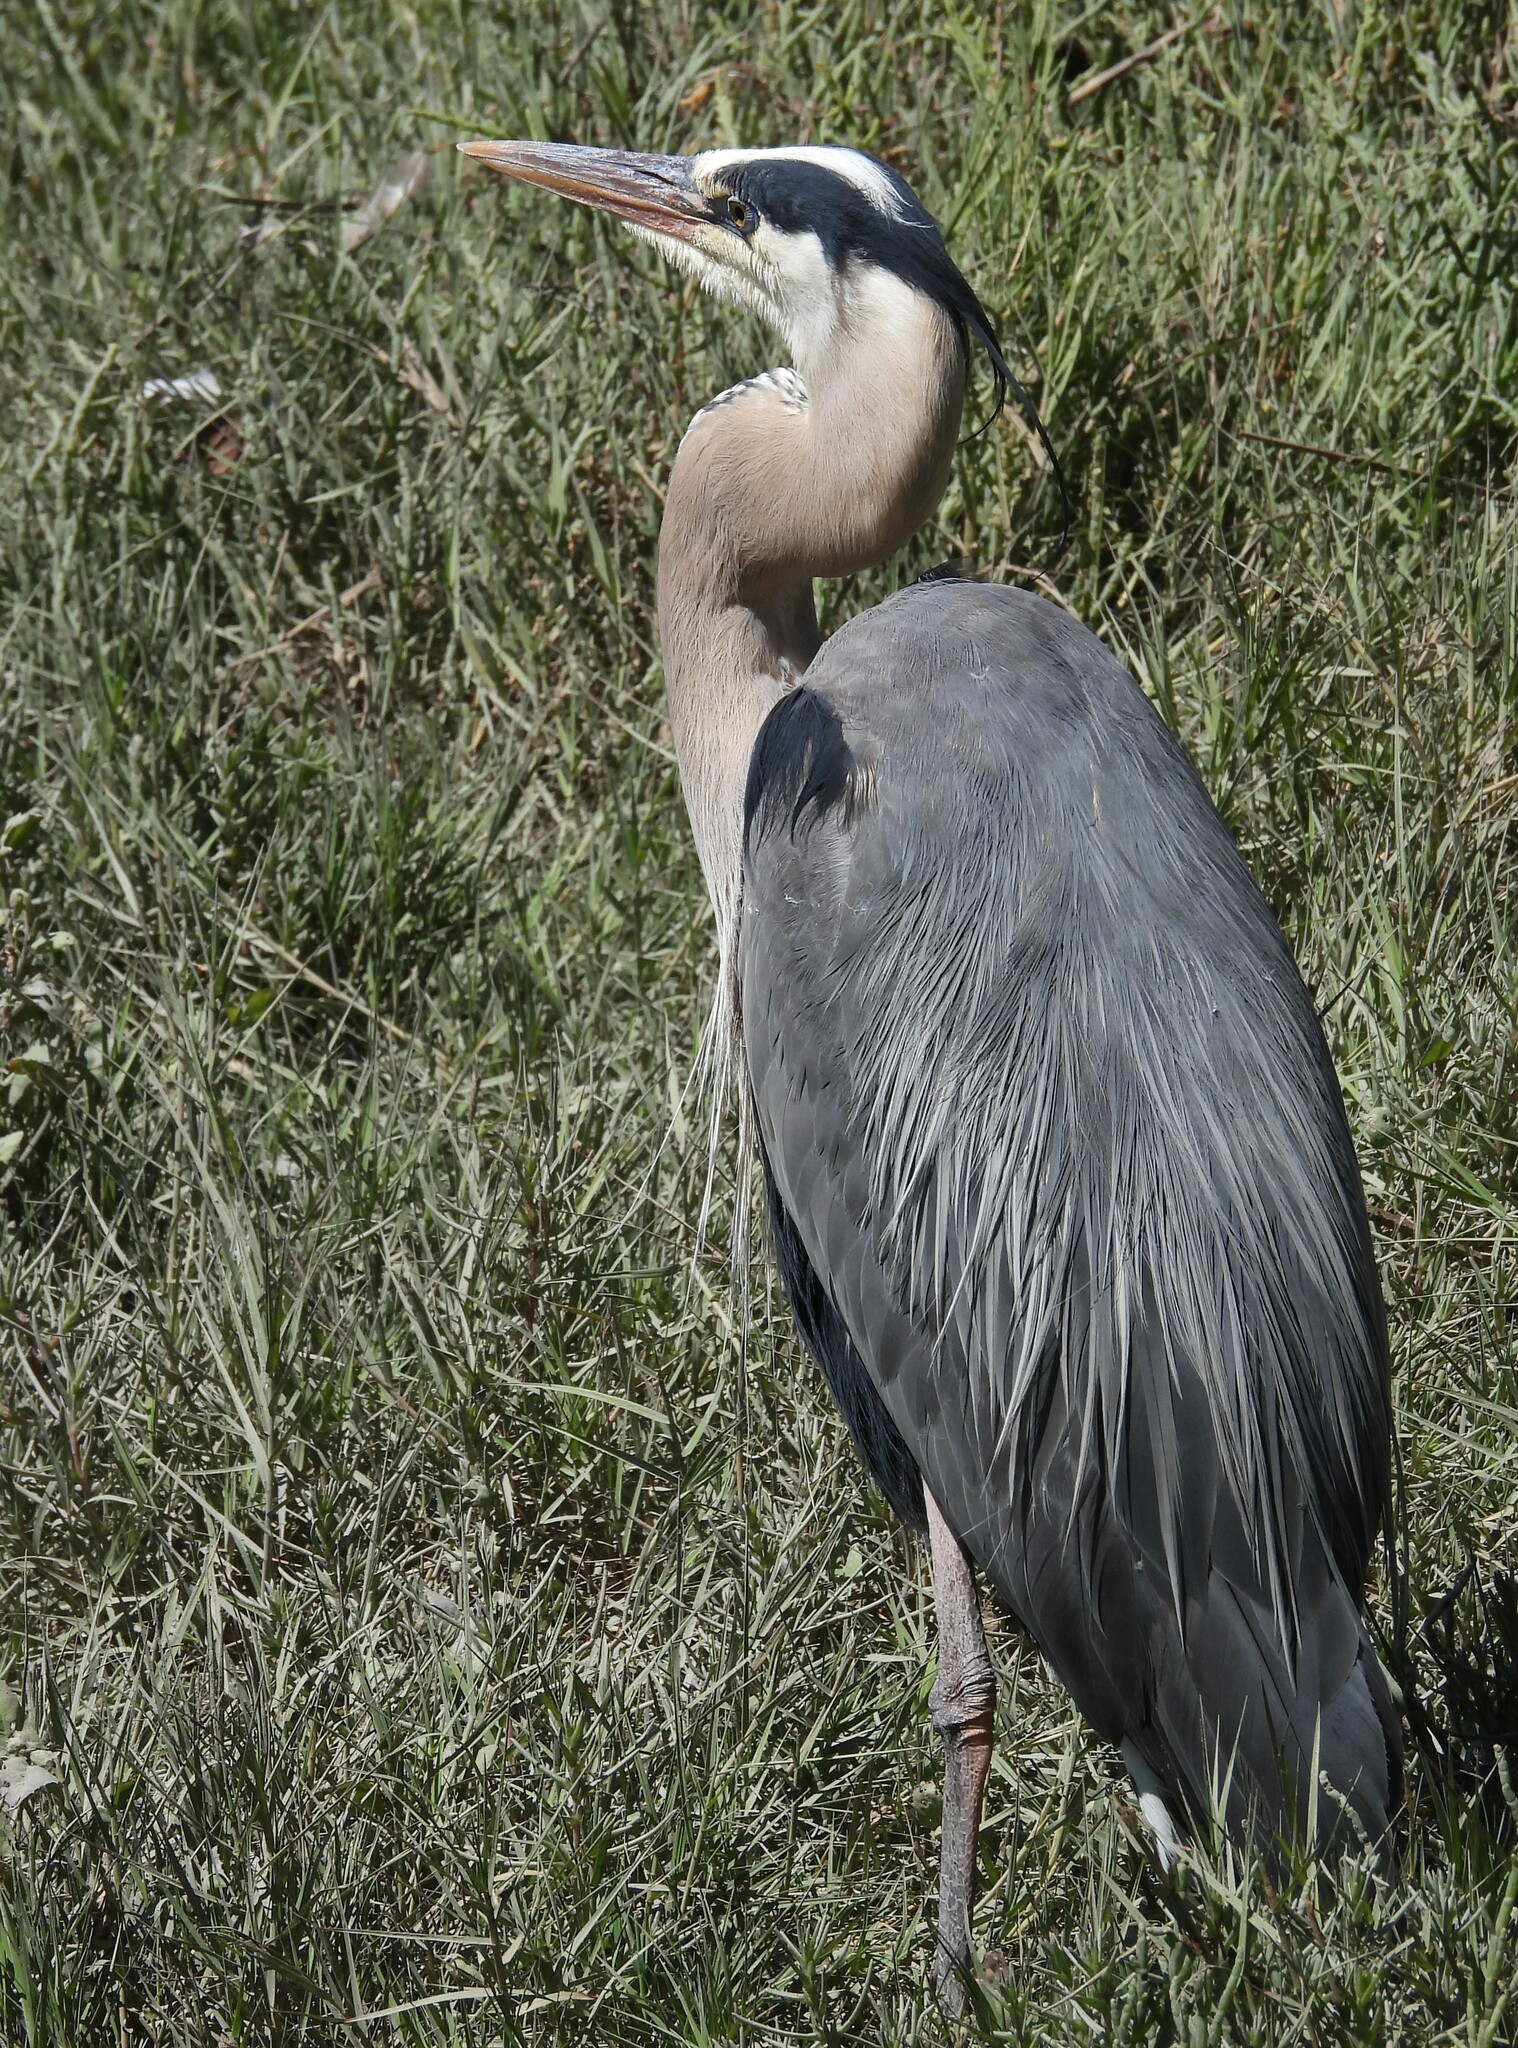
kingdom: Animalia
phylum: Chordata
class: Aves
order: Pelecaniformes
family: Ardeidae
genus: Ardea
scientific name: Ardea herodias
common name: Great blue heron
